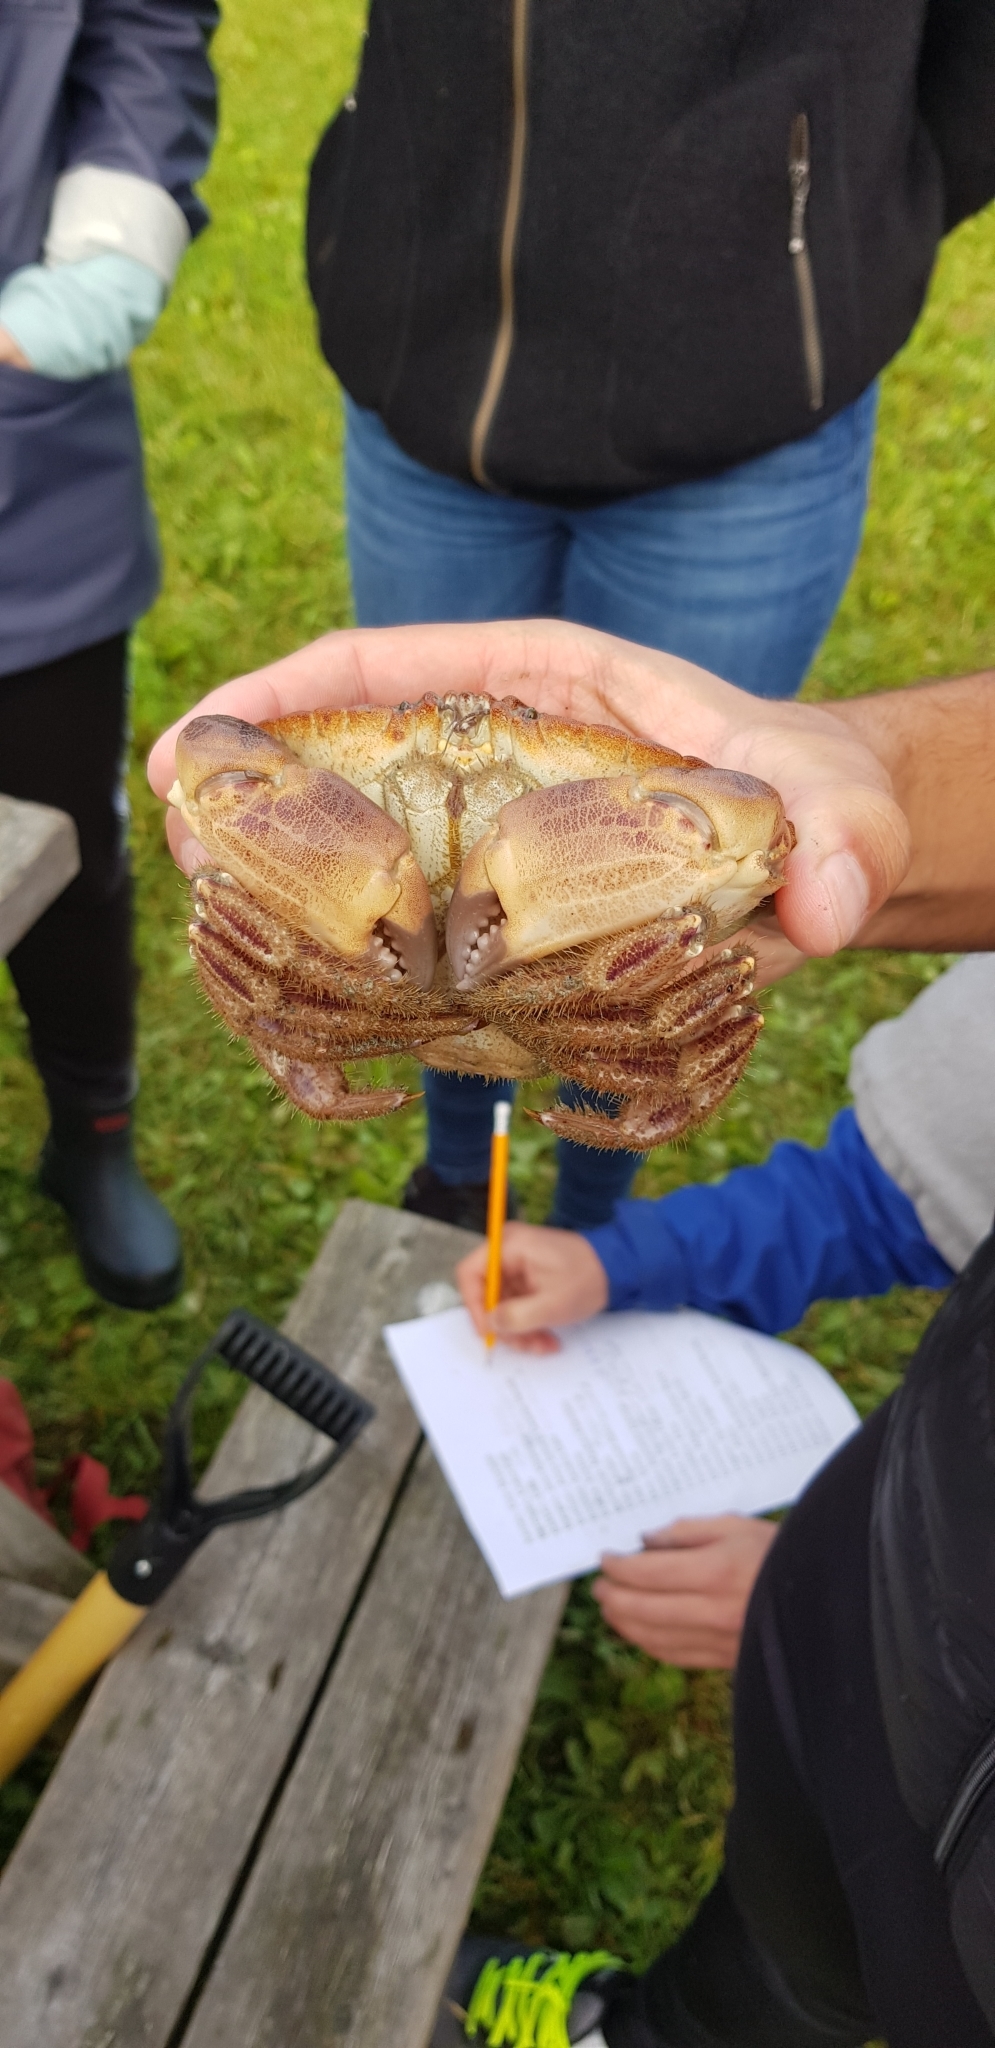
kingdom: Animalia
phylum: Arthropoda
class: Malacostraca
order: Decapoda
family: Cancridae
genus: Cancer
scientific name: Cancer pagurus
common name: Edible crab
